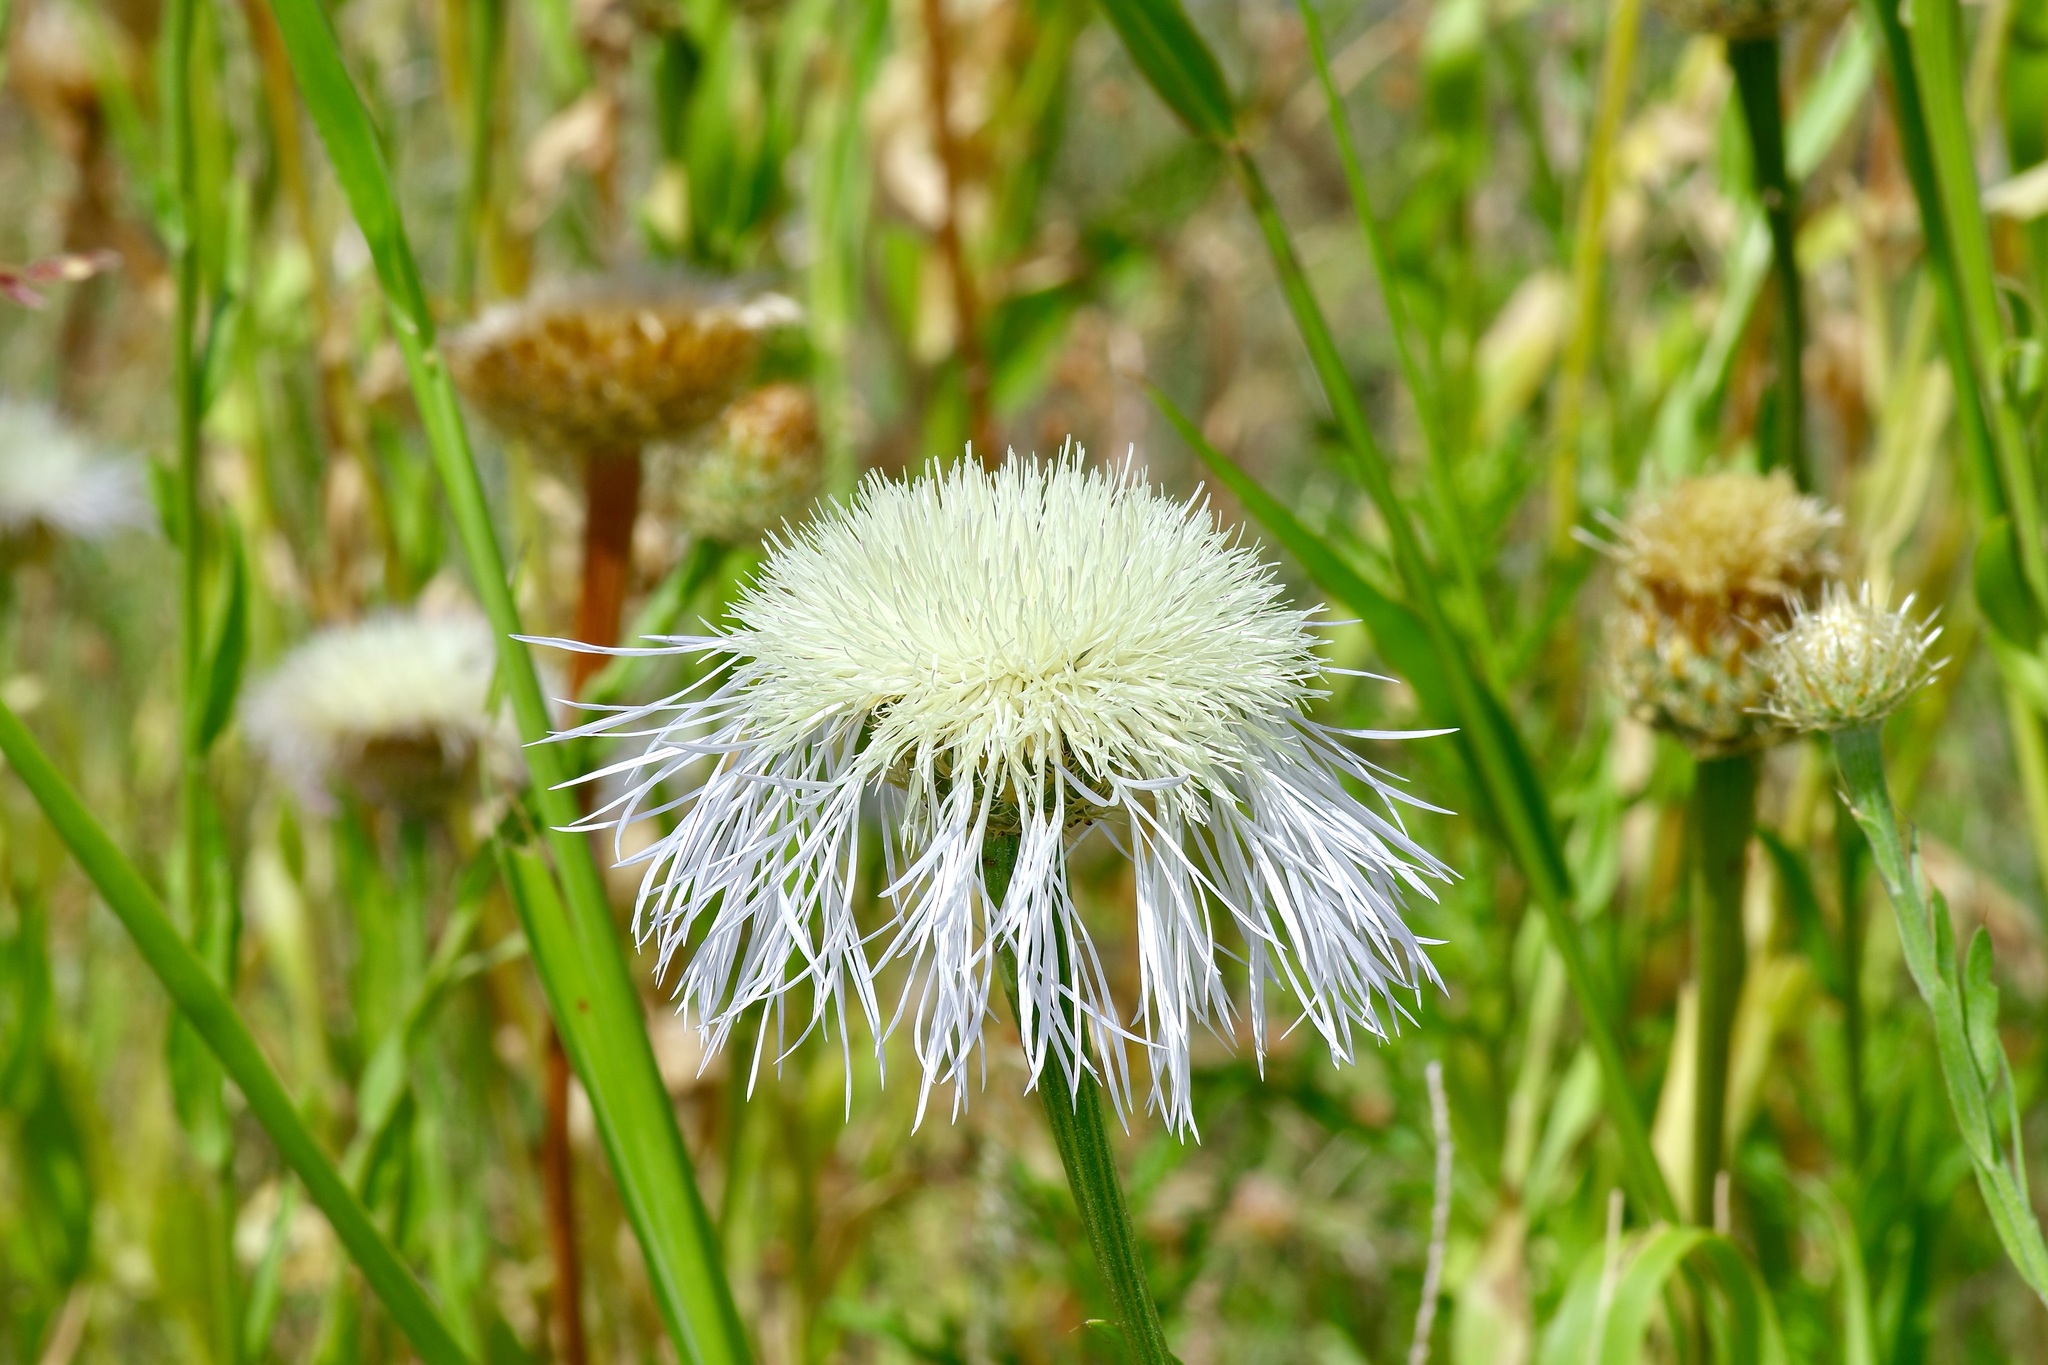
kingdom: Plantae
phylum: Tracheophyta
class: Magnoliopsida
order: Asterales
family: Asteraceae
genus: Plectocephalus
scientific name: Plectocephalus americanus
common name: American basket-flower
